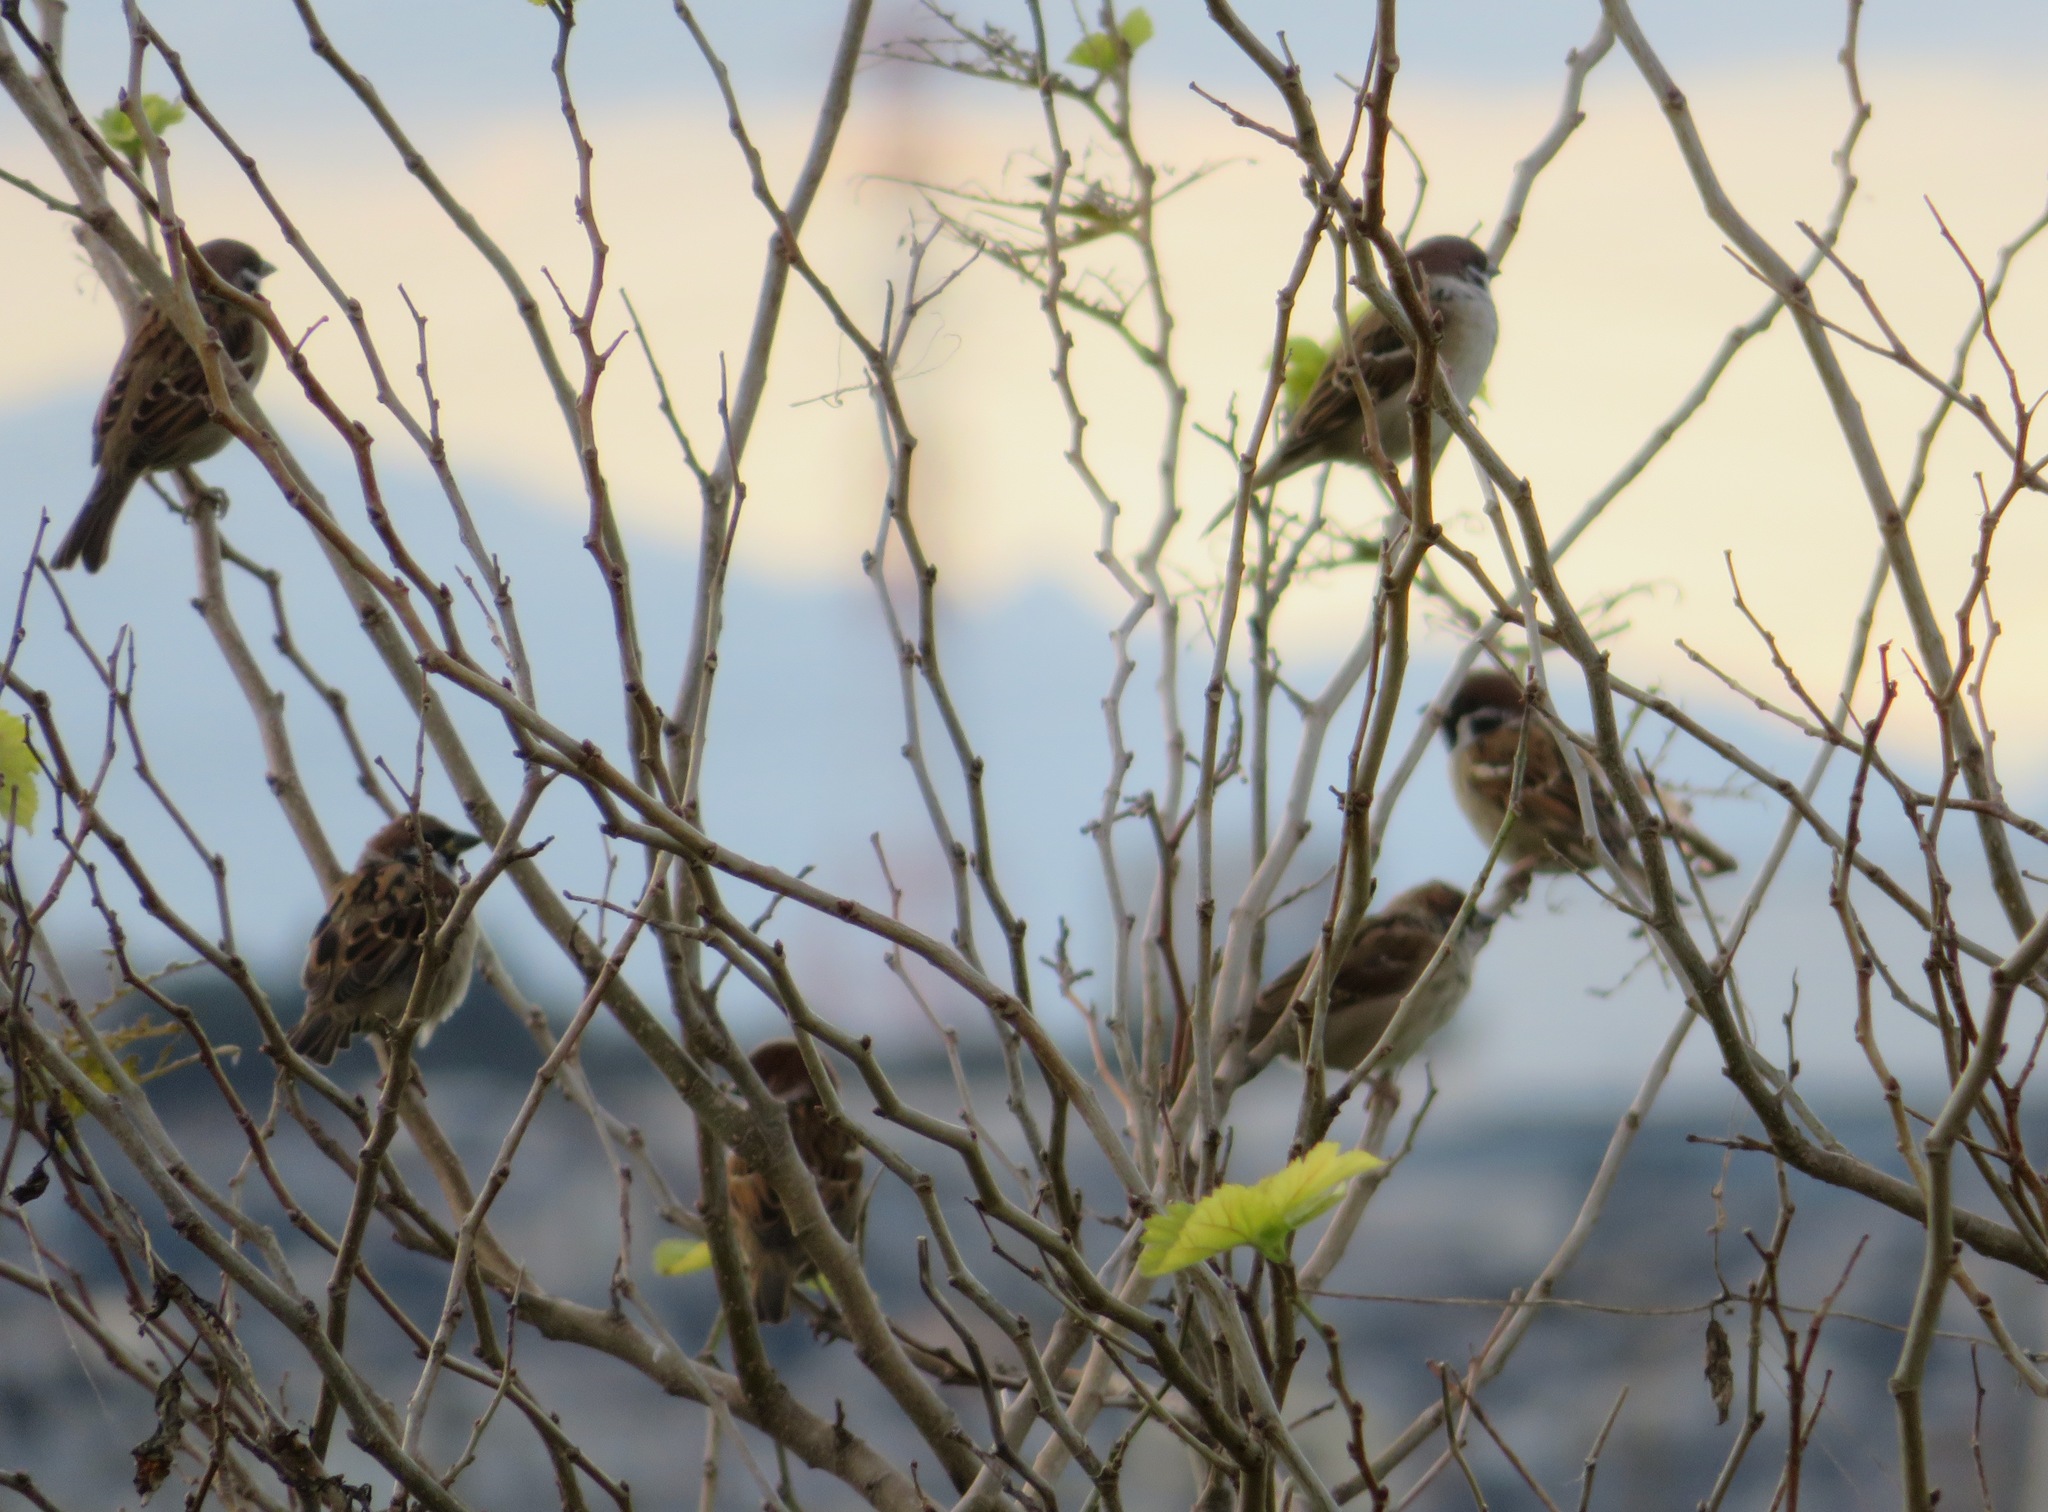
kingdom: Animalia
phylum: Chordata
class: Aves
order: Passeriformes
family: Passeridae
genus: Passer
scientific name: Passer montanus
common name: Eurasian tree sparrow
